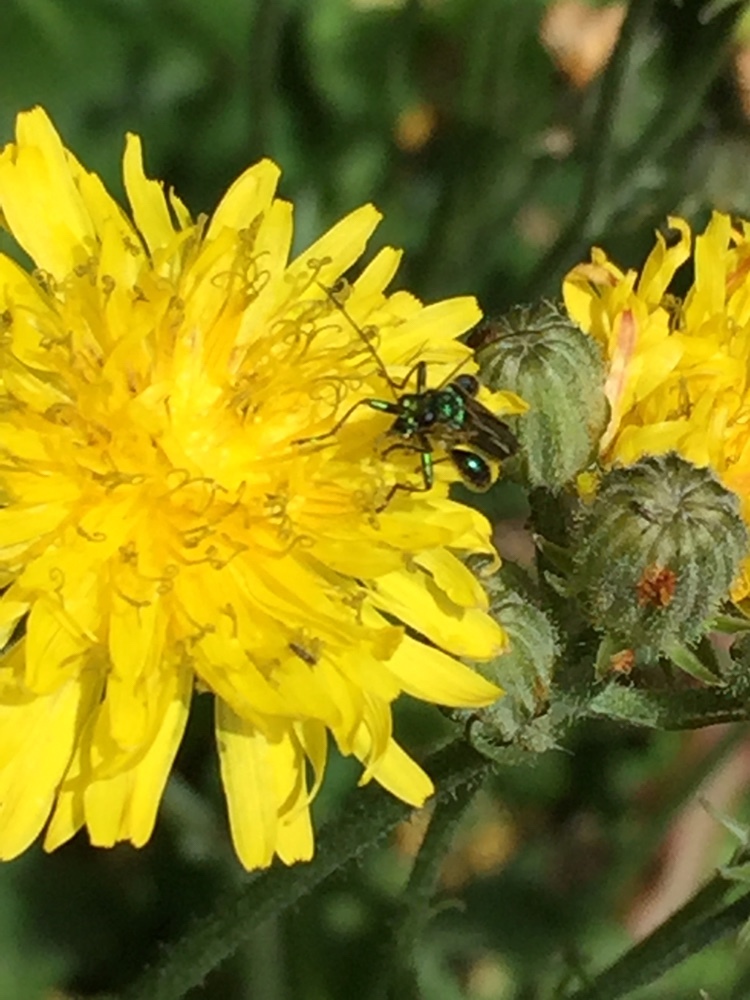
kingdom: Animalia
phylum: Arthropoda
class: Insecta
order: Coleoptera
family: Oedemeridae
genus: Oedemera
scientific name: Oedemera nobilis
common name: Swollen-thighed beetle
